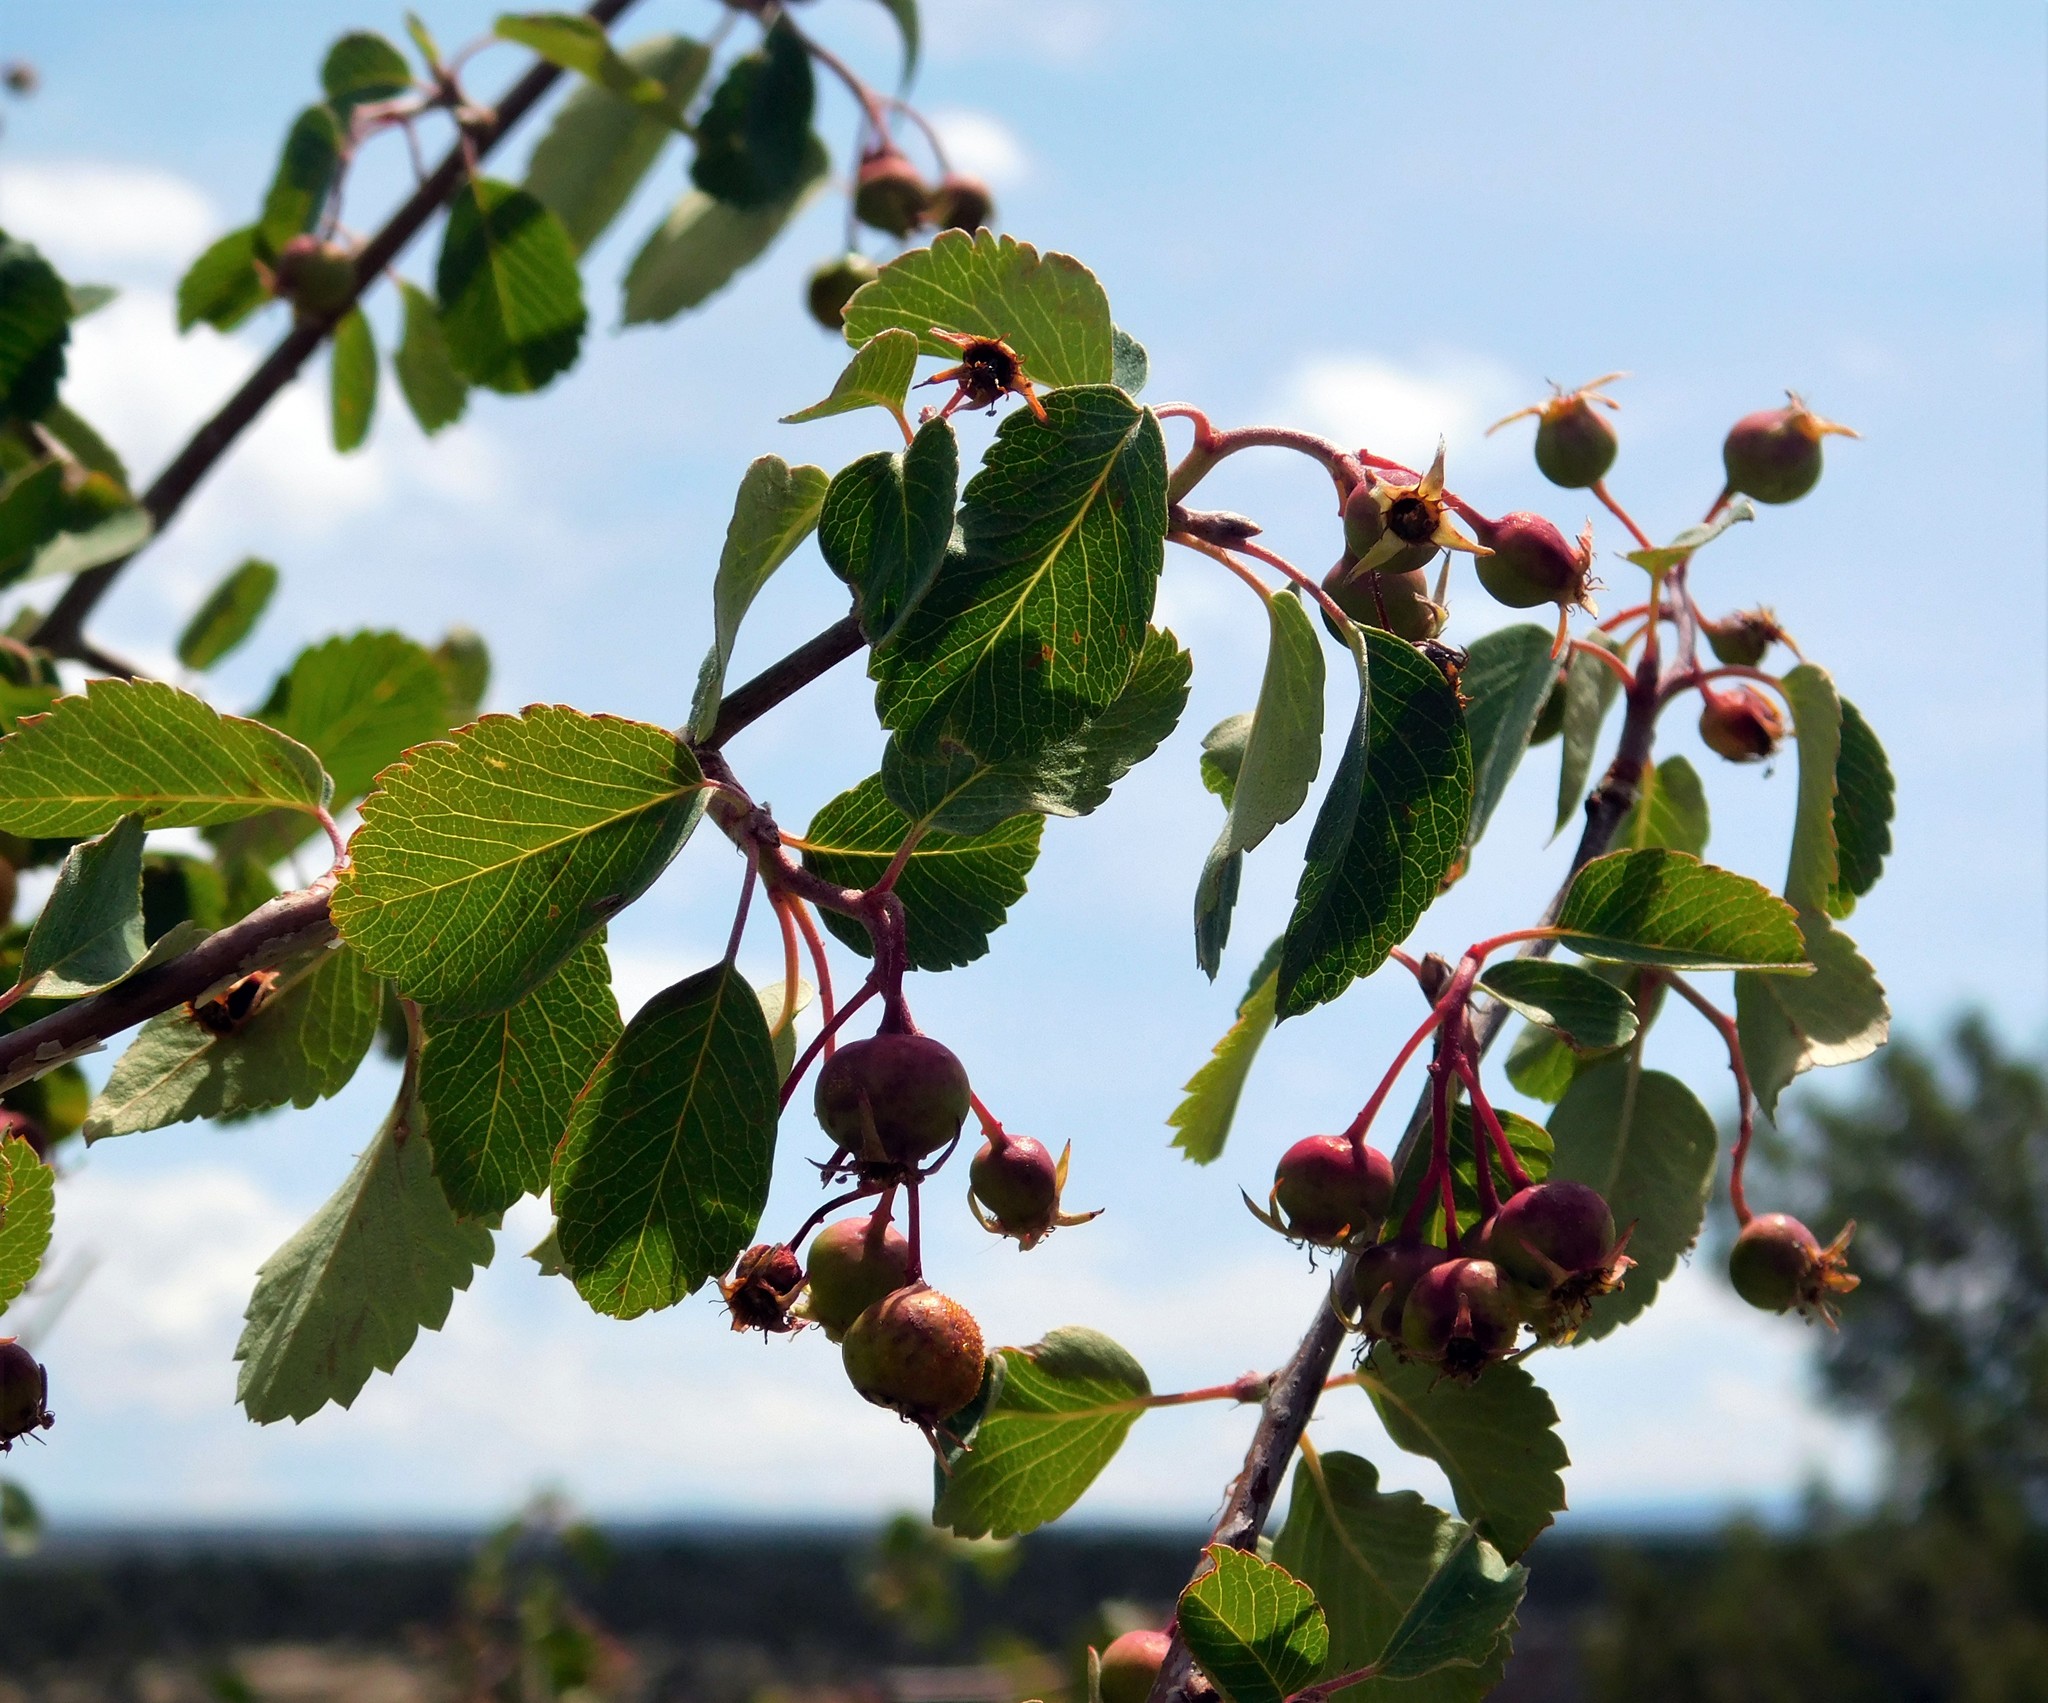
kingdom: Plantae
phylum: Tracheophyta
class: Magnoliopsida
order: Rosales
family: Rosaceae
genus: Amelanchier
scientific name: Amelanchier utahensis
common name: Utah serviceberry
